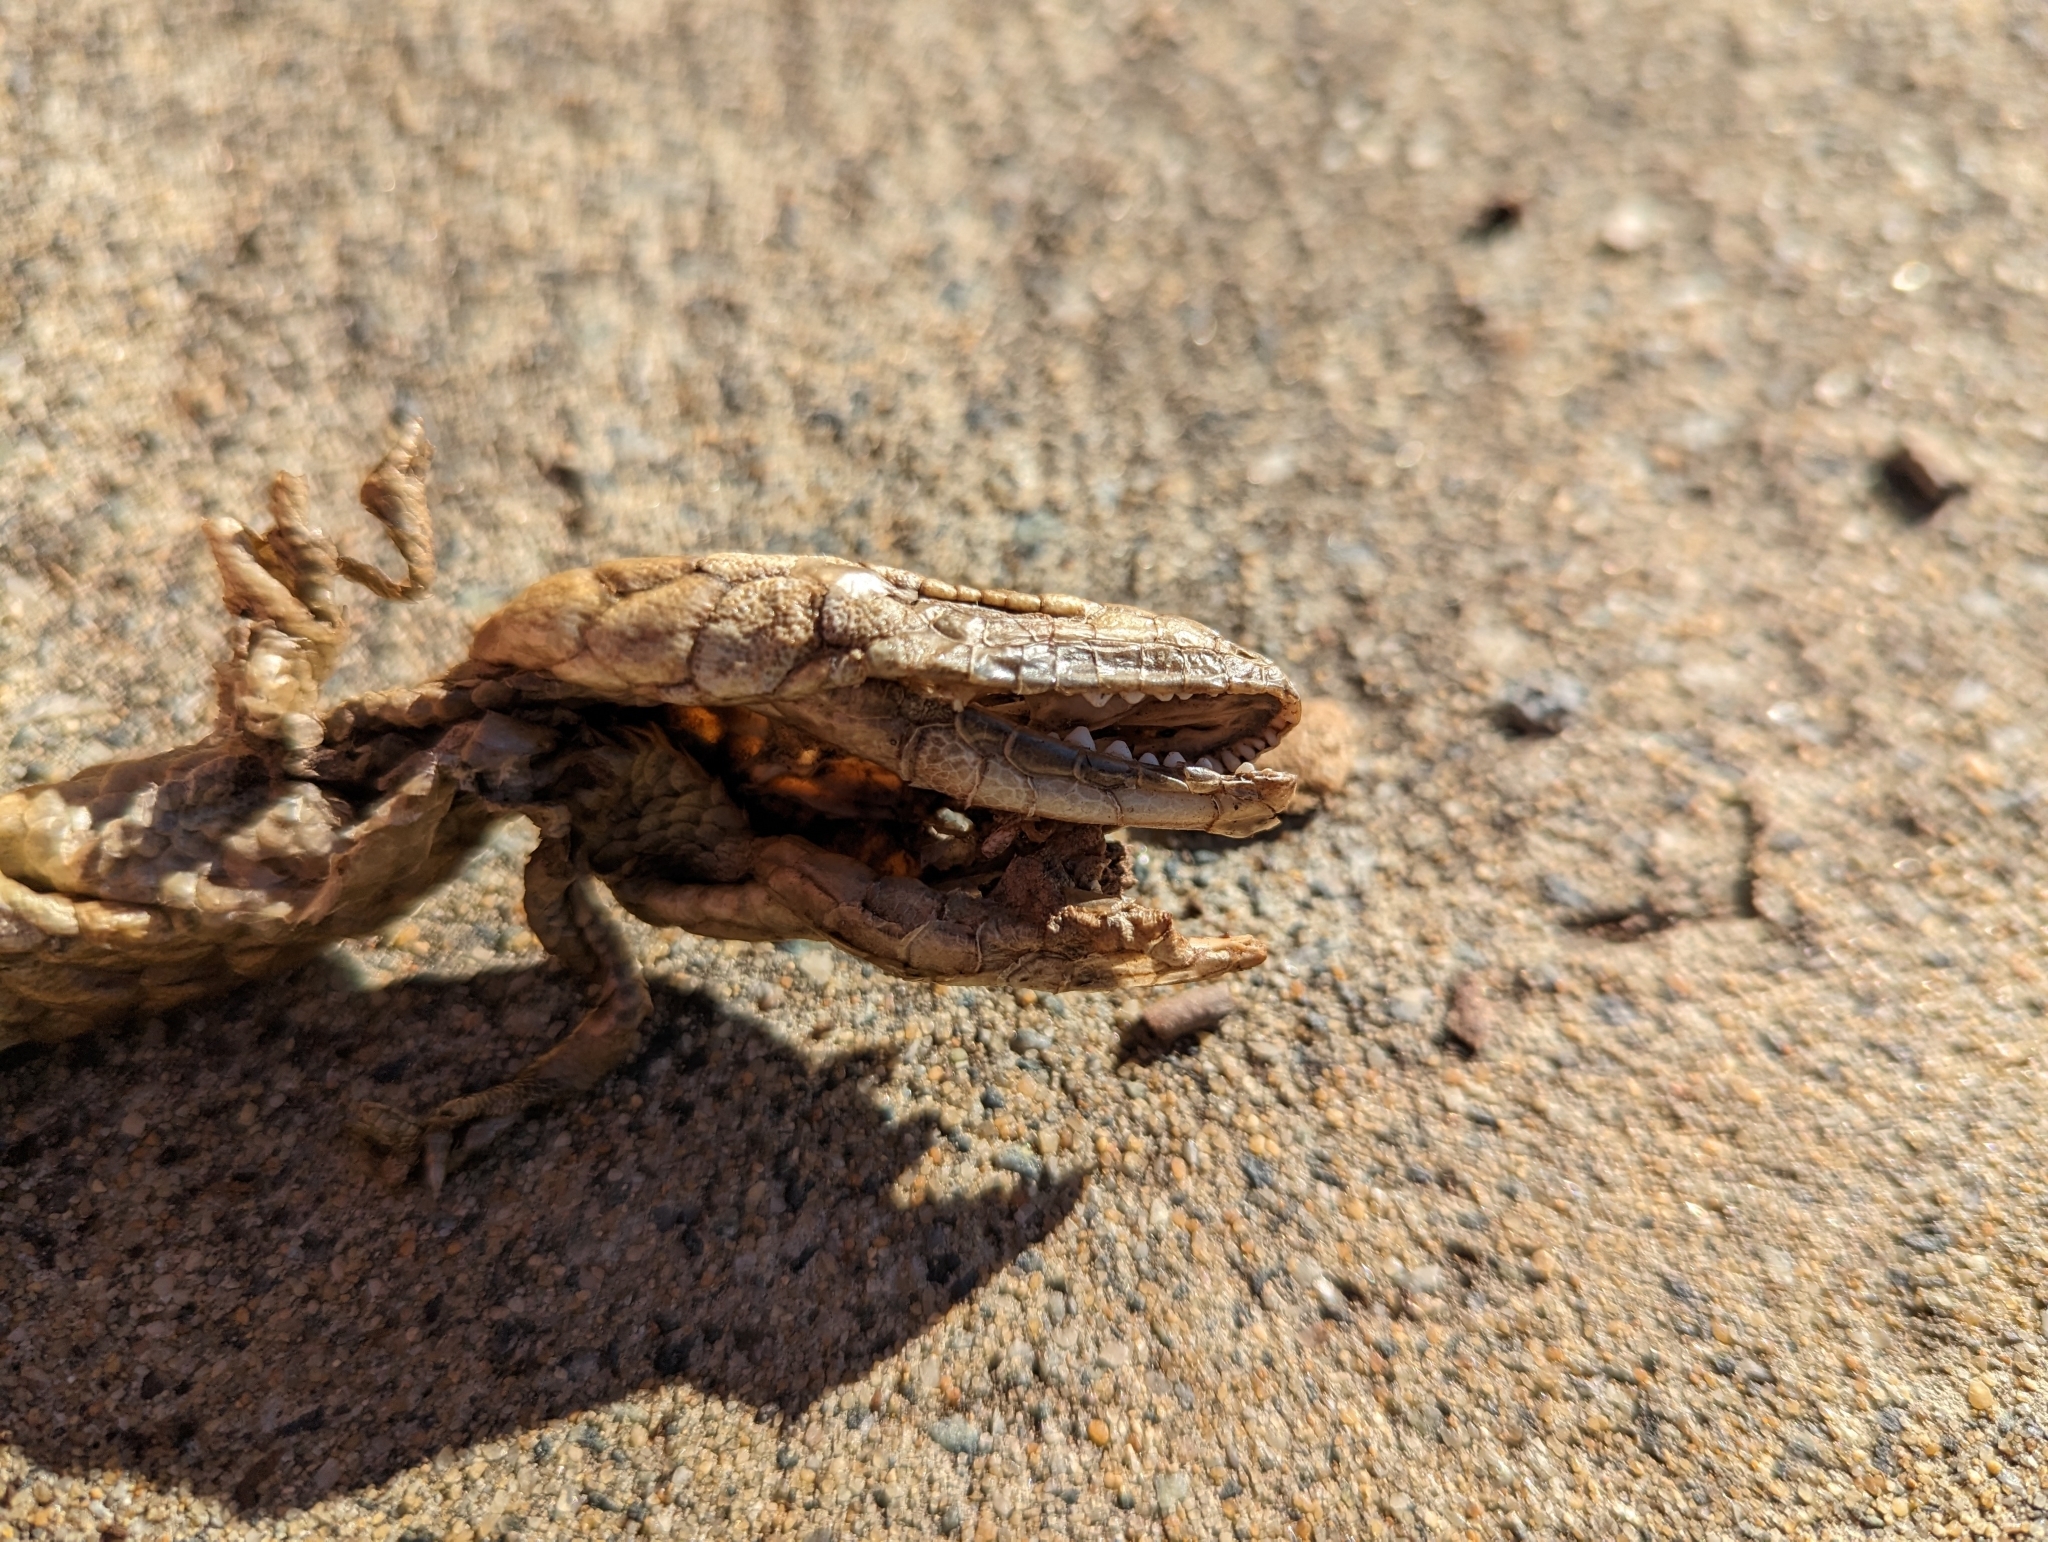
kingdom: Animalia
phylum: Chordata
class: Squamata
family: Scincidae
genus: Tiliqua
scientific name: Tiliqua rugosa
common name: Pinecone lizard
